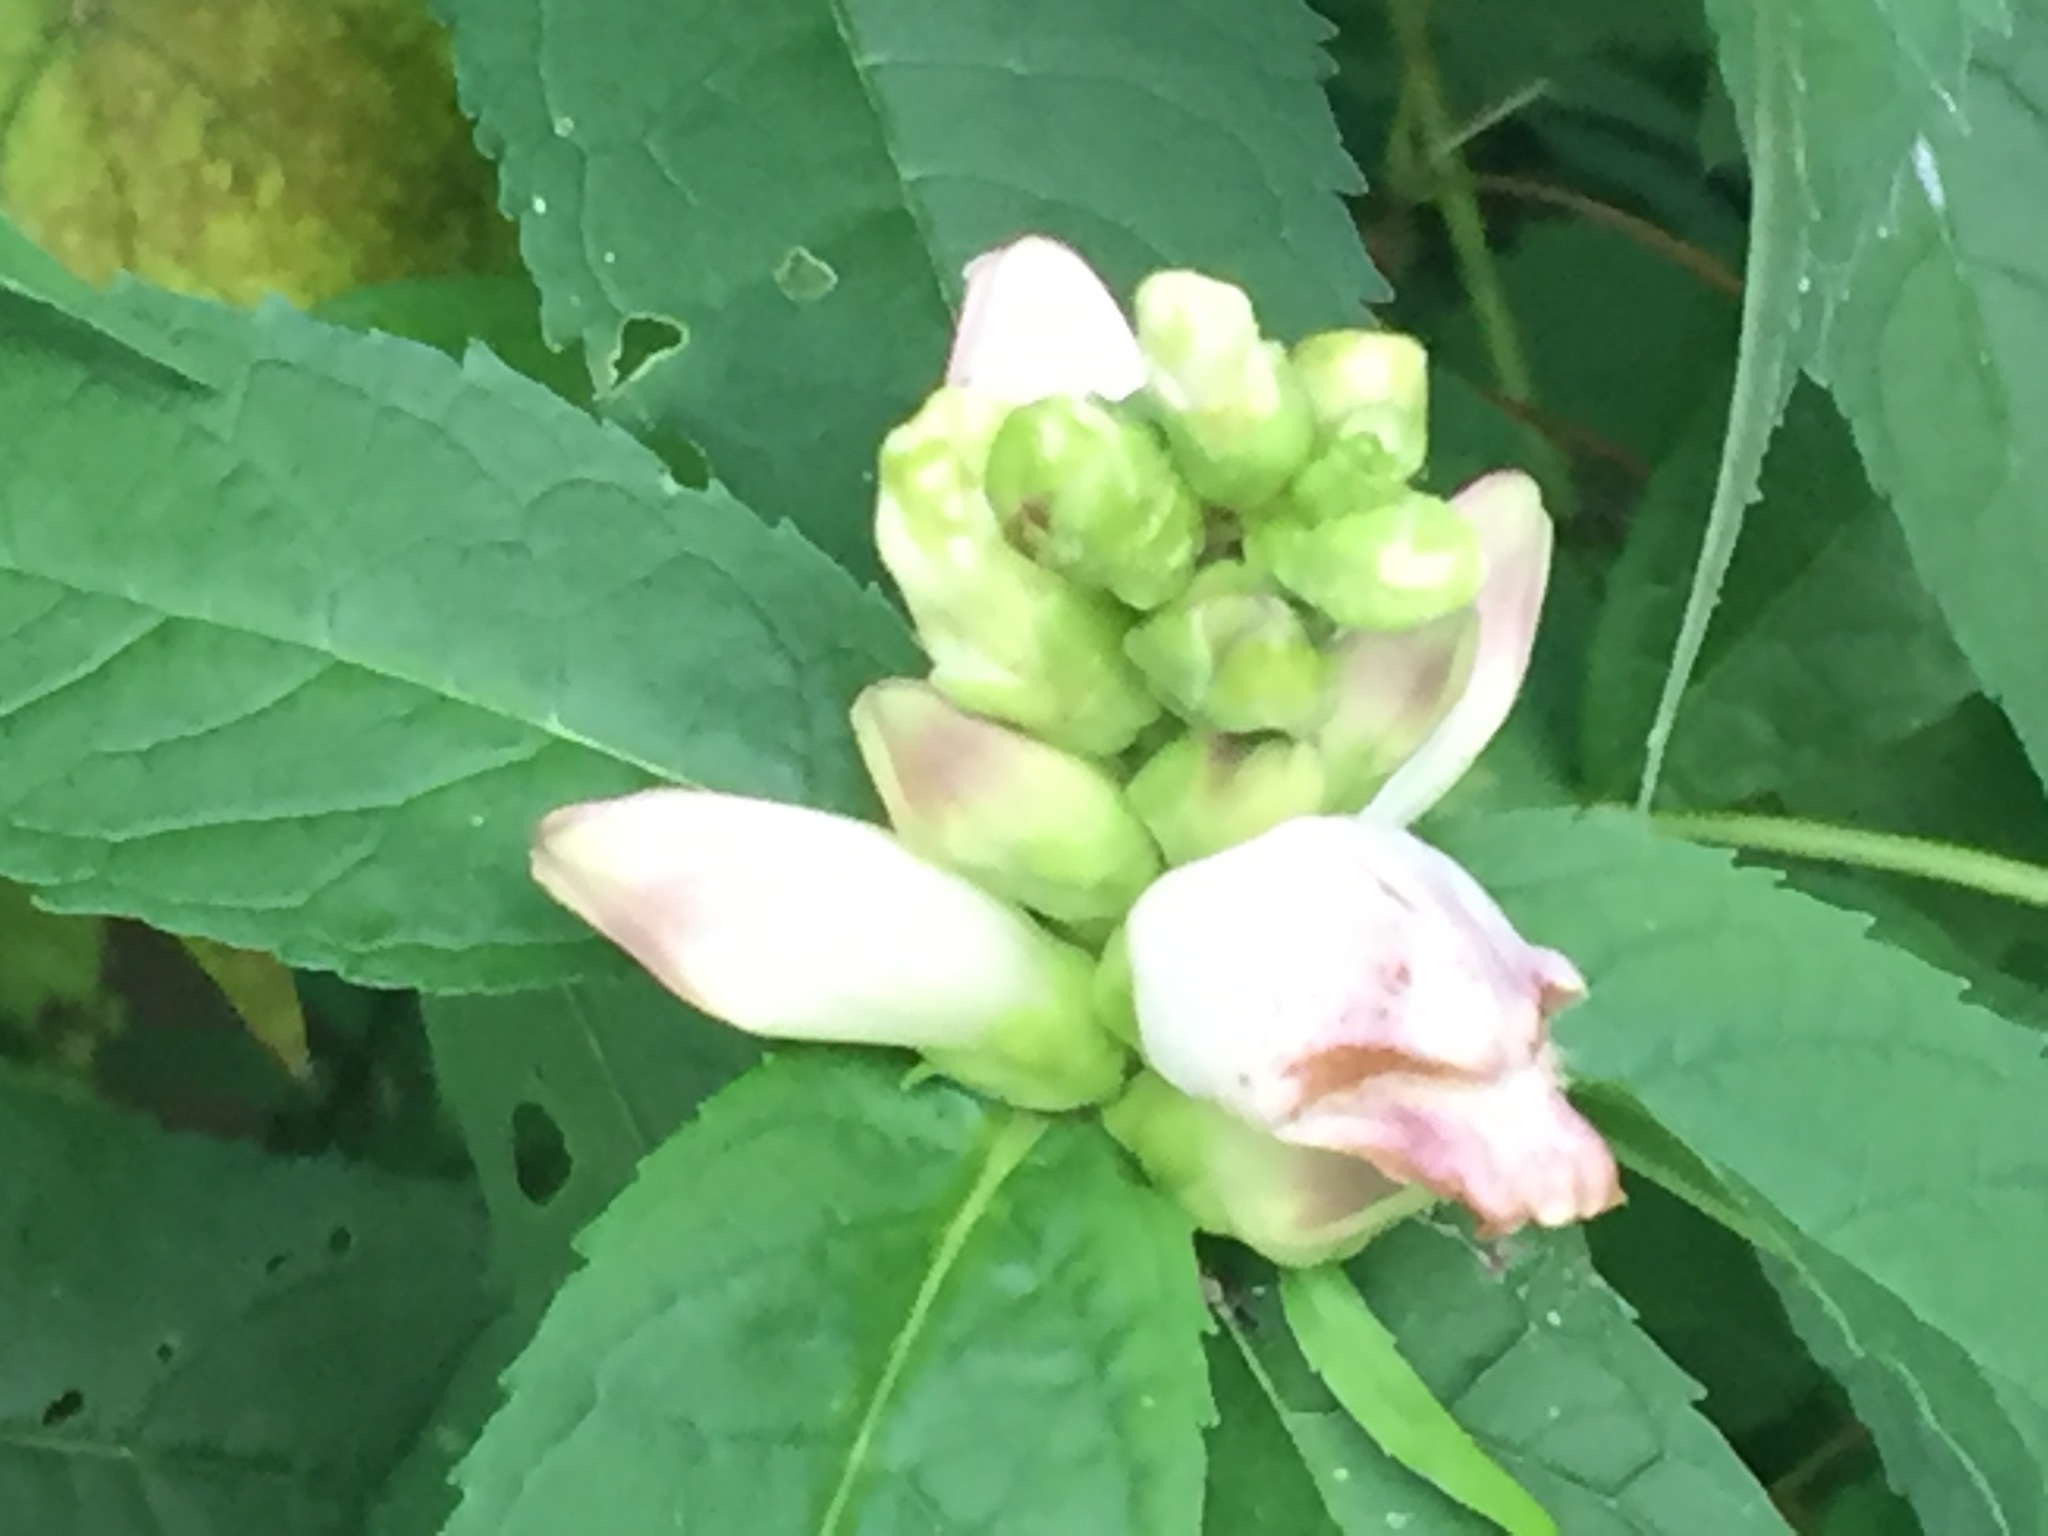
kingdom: Plantae
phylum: Tracheophyta
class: Magnoliopsida
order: Lamiales
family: Plantaginaceae
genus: Chelone
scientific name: Chelone glabra
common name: Snakehead
